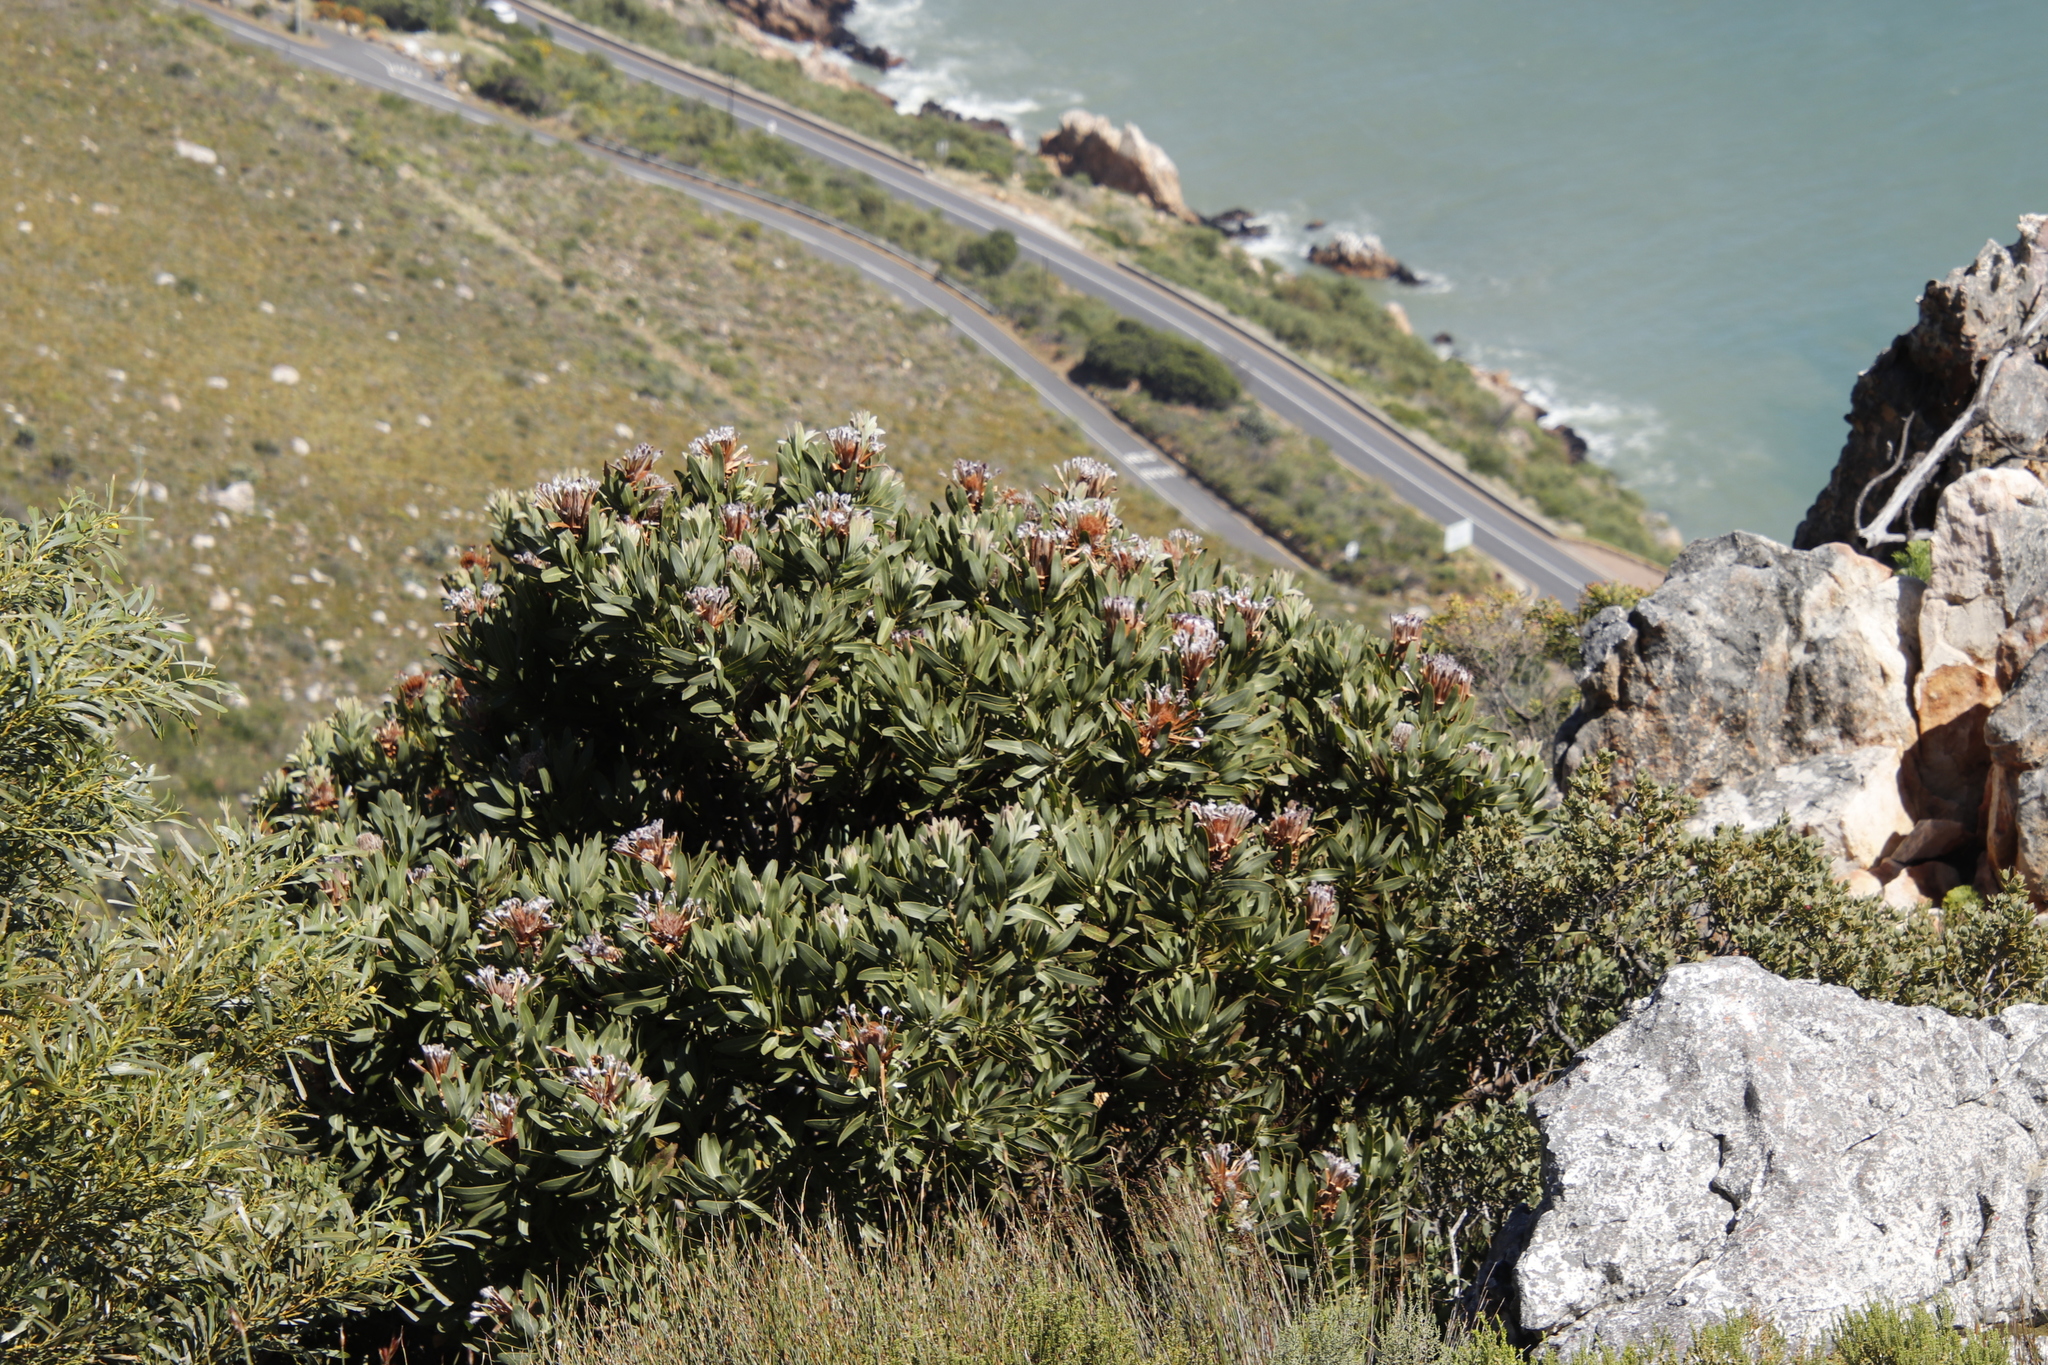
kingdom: Plantae
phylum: Tracheophyta
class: Magnoliopsida
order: Proteales
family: Proteaceae
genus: Protea
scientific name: Protea laurifolia
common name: Grey-leaf sugarbsh
